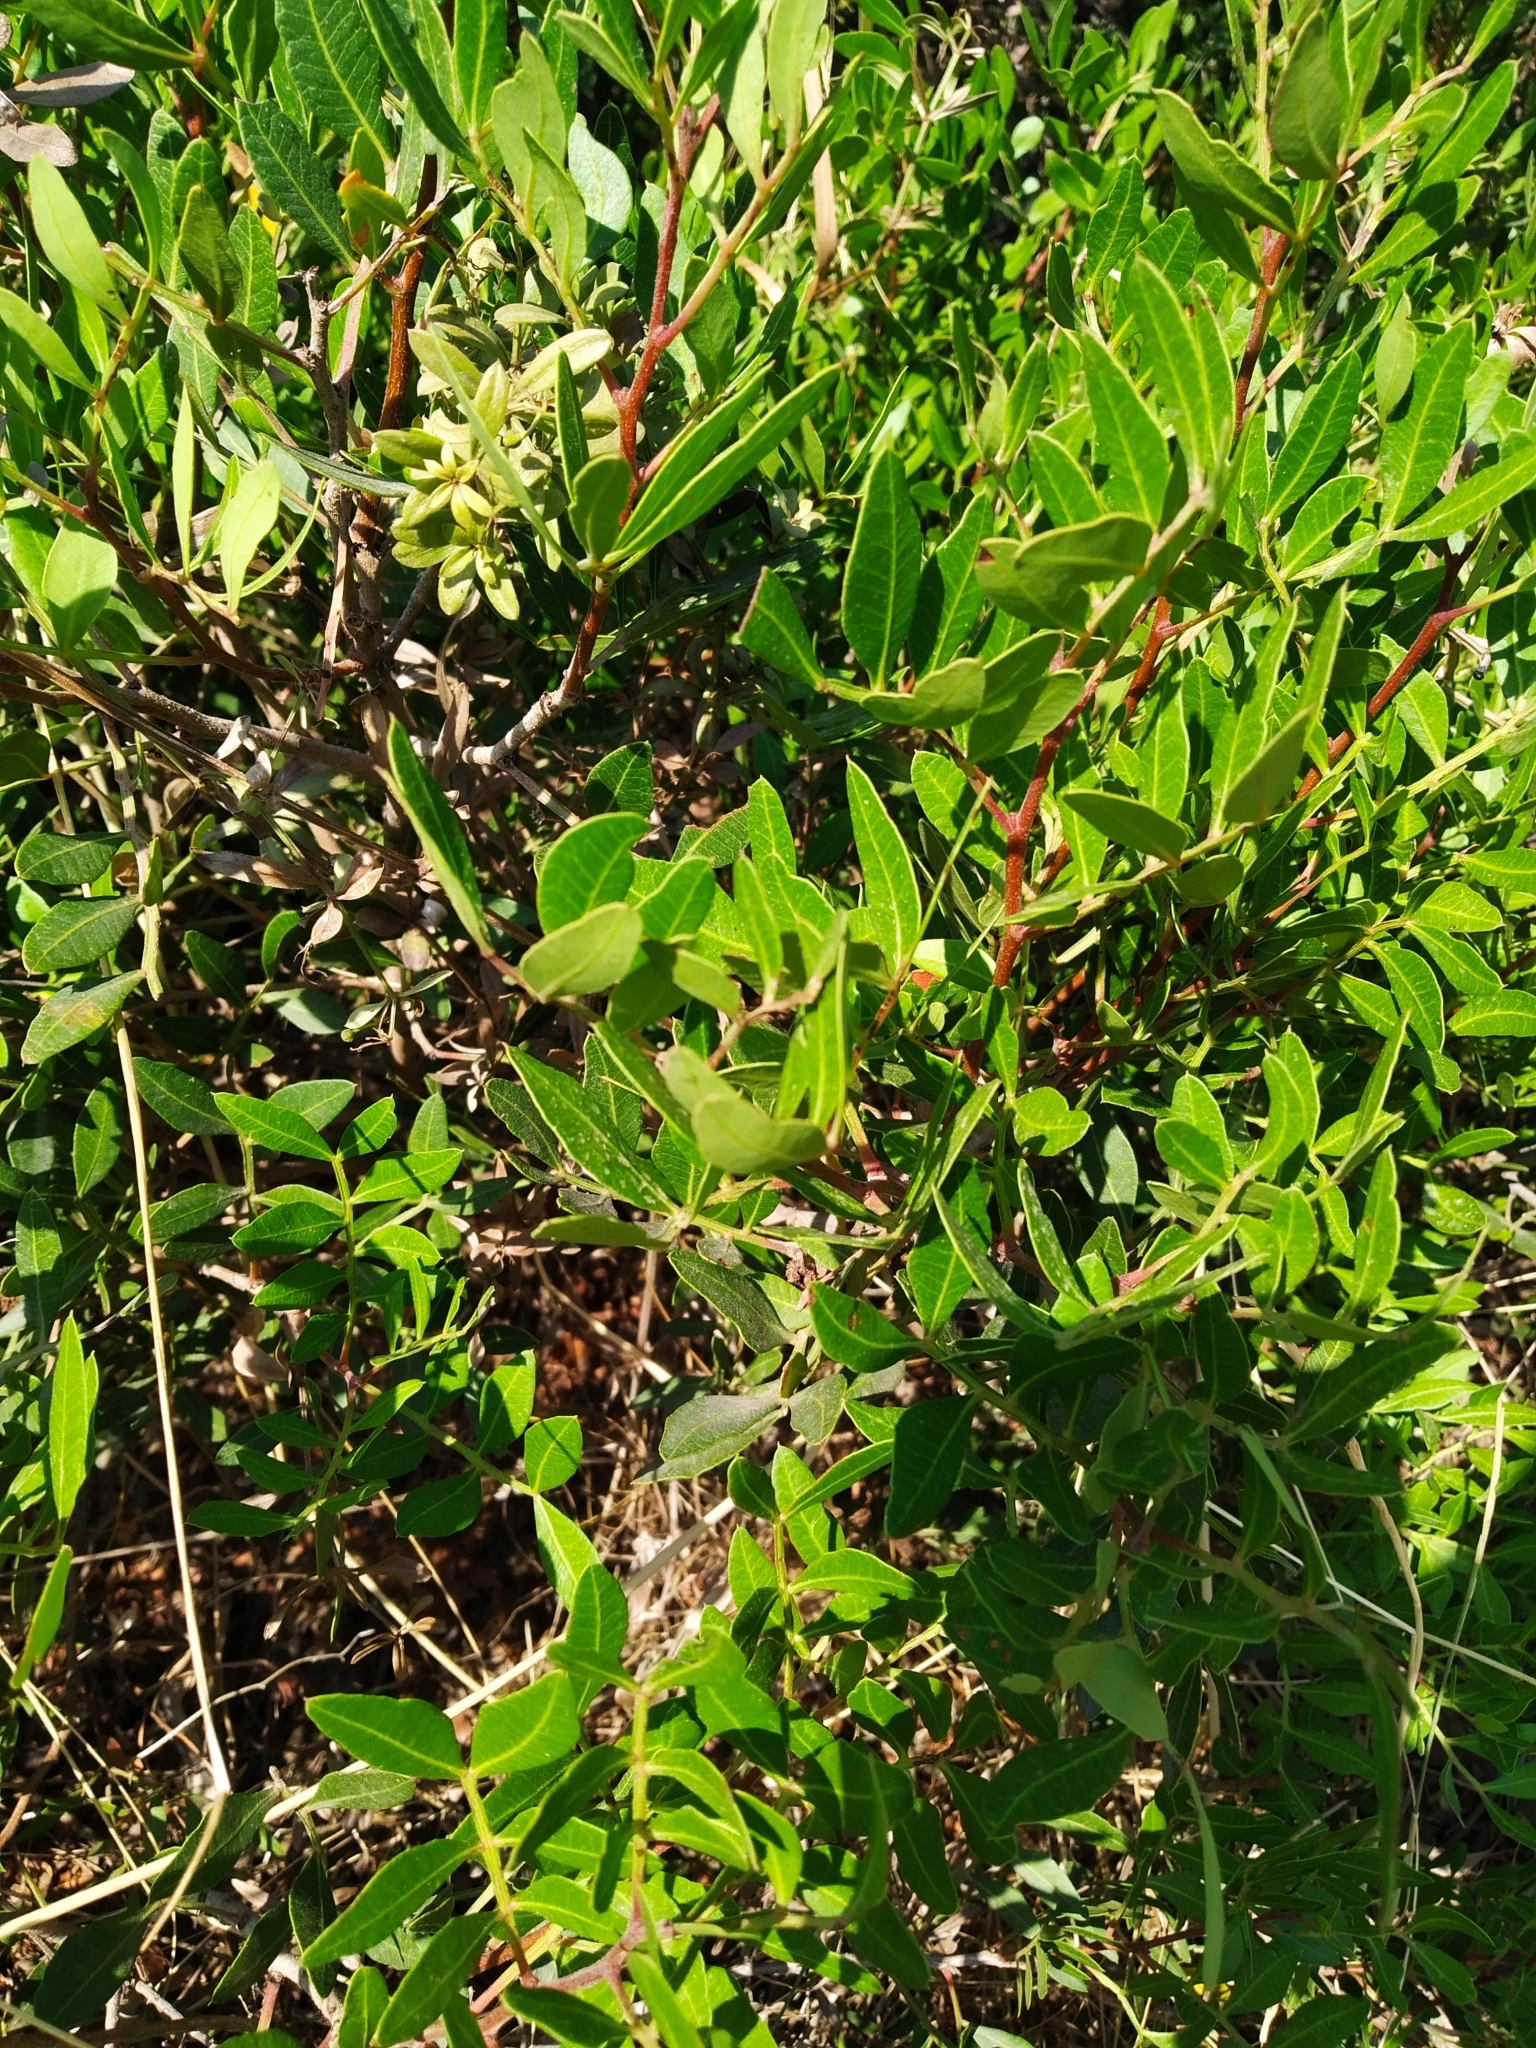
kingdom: Plantae
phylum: Tracheophyta
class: Magnoliopsida
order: Sapindales
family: Anacardiaceae
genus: Pistacia
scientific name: Pistacia lentiscus
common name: Lentisk
